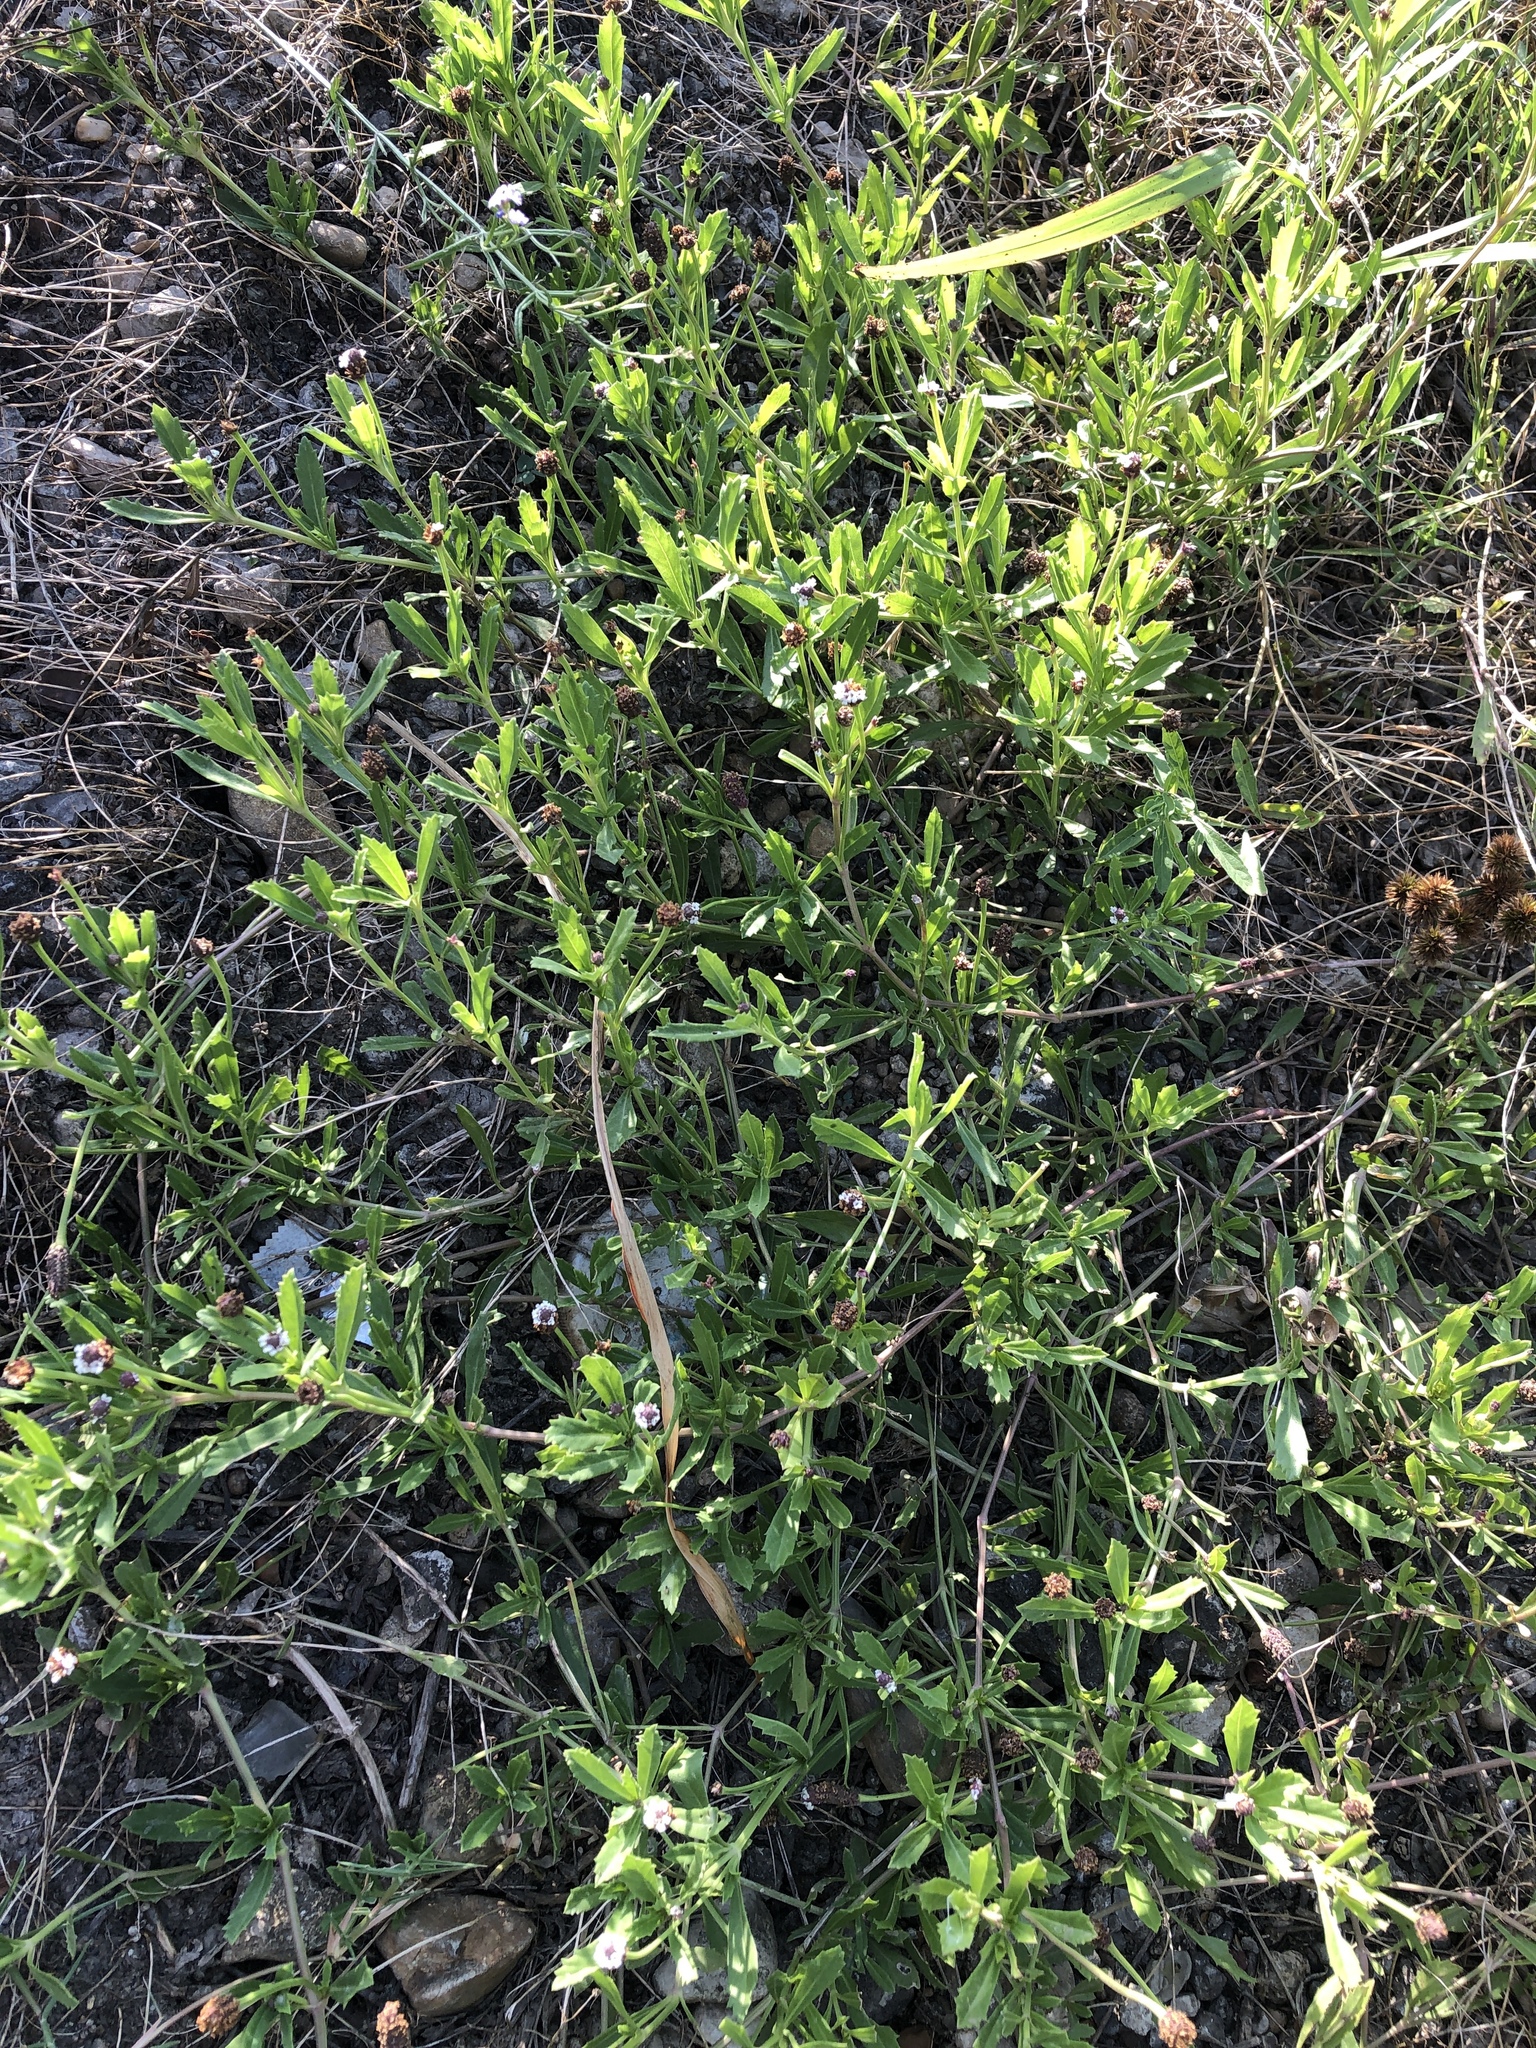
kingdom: Plantae
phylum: Tracheophyta
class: Magnoliopsida
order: Lamiales
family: Verbenaceae
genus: Phyla
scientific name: Phyla nodiflora
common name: Frogfruit
